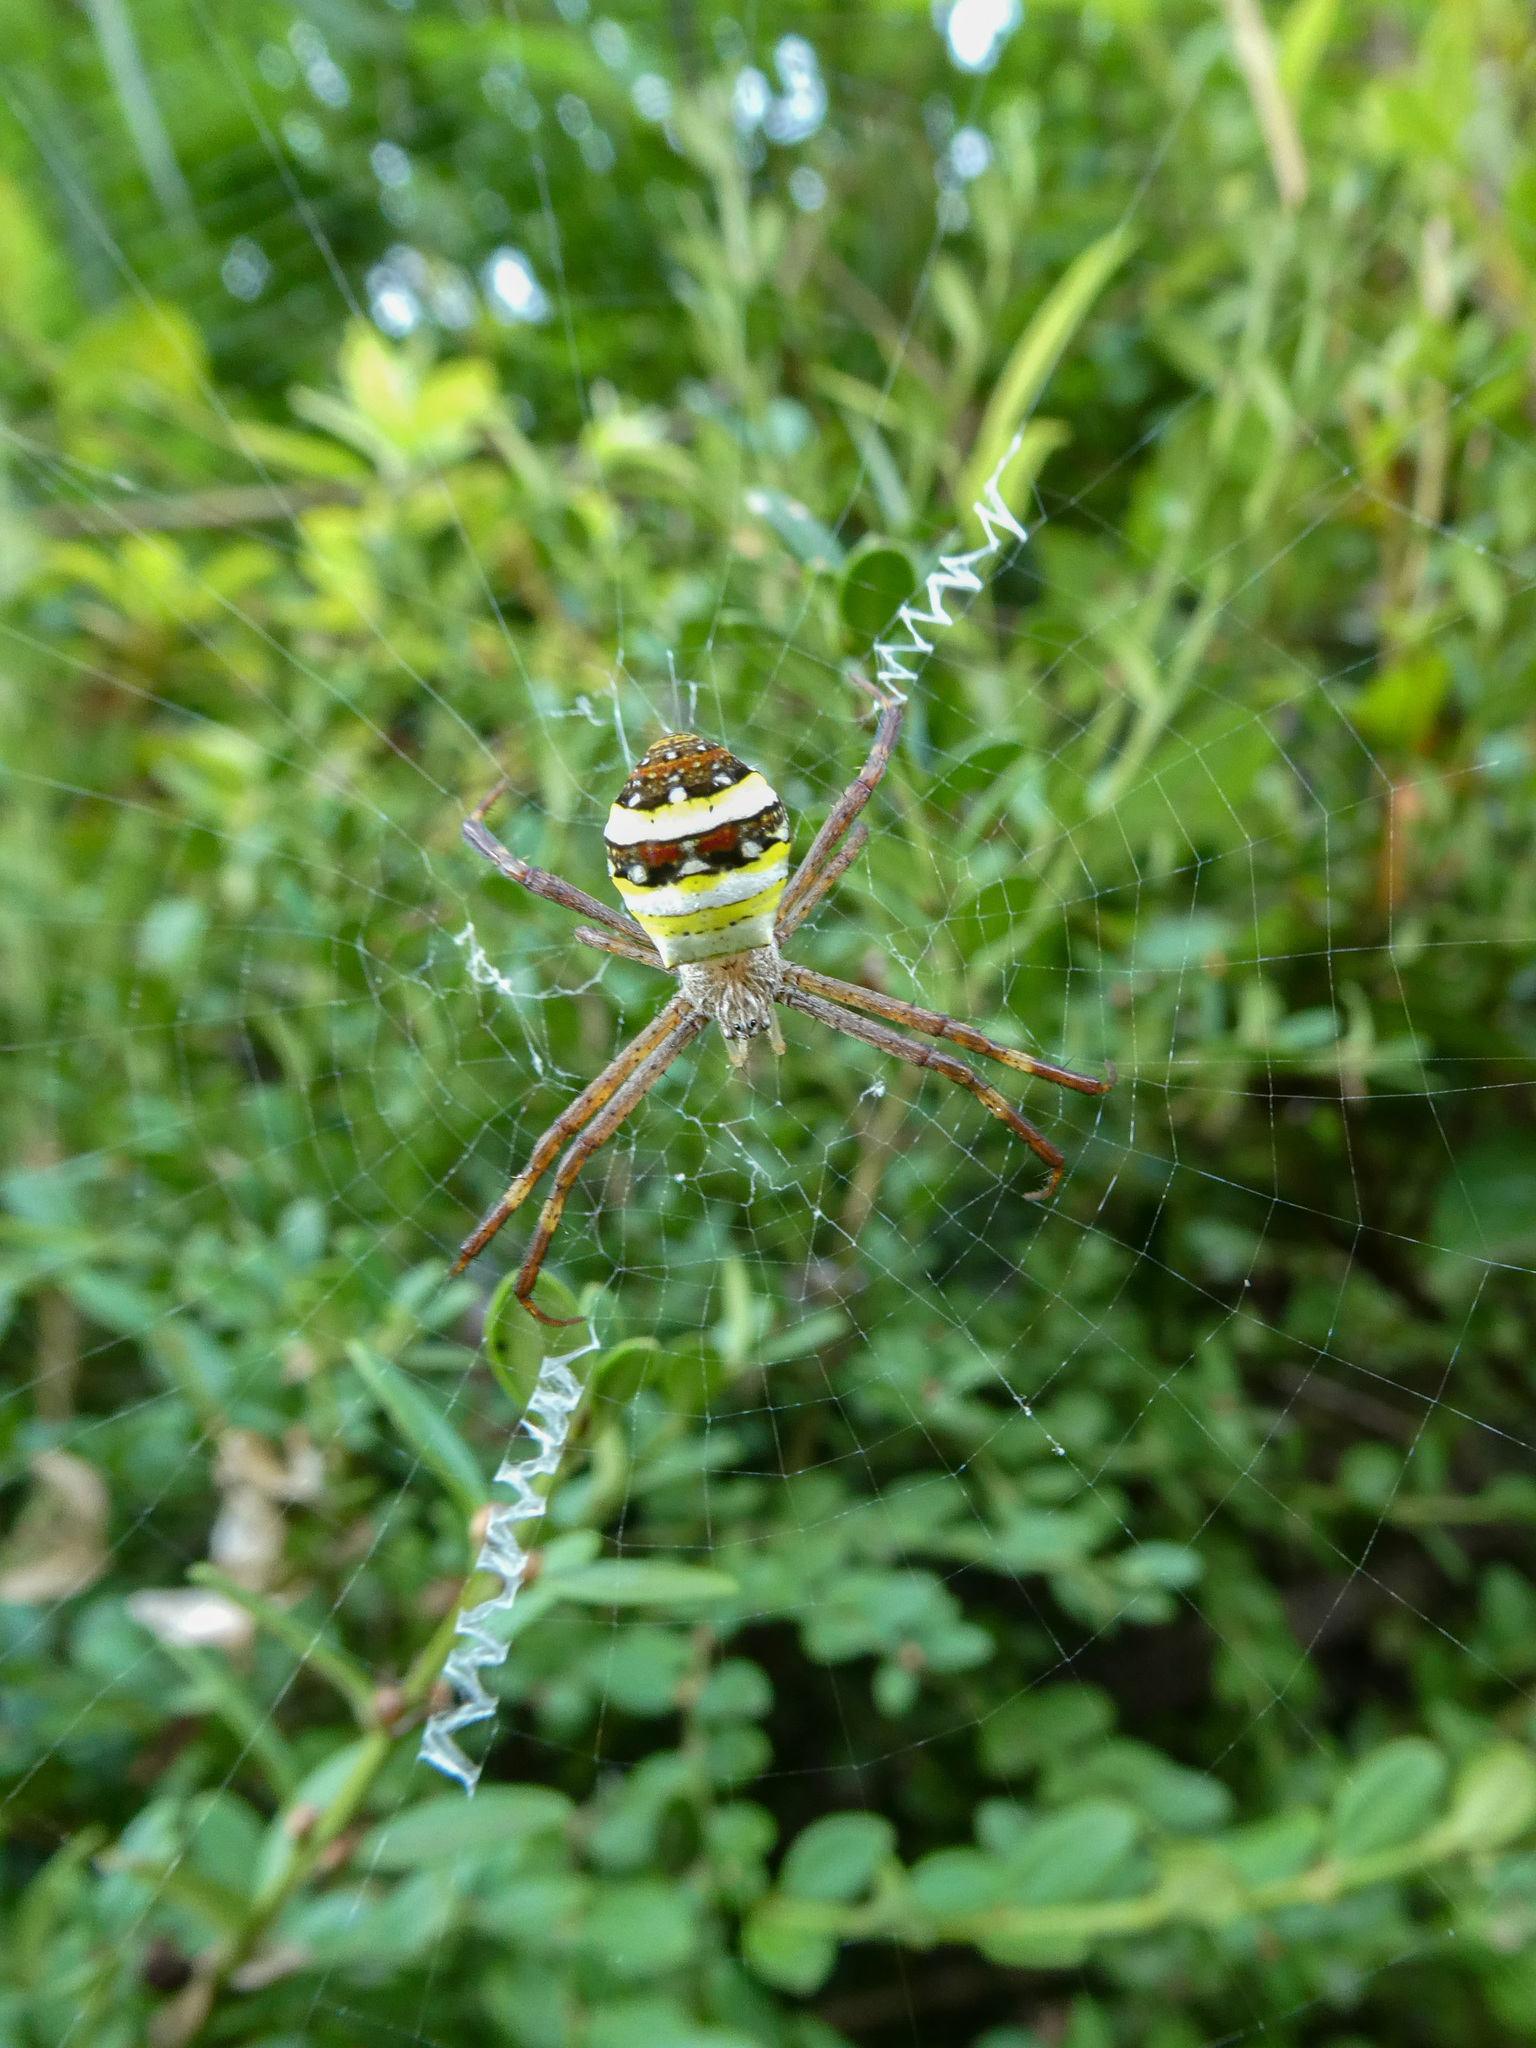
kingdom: Animalia
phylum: Arthropoda
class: Arachnida
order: Araneae
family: Araneidae
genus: Argiope
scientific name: Argiope minuta
